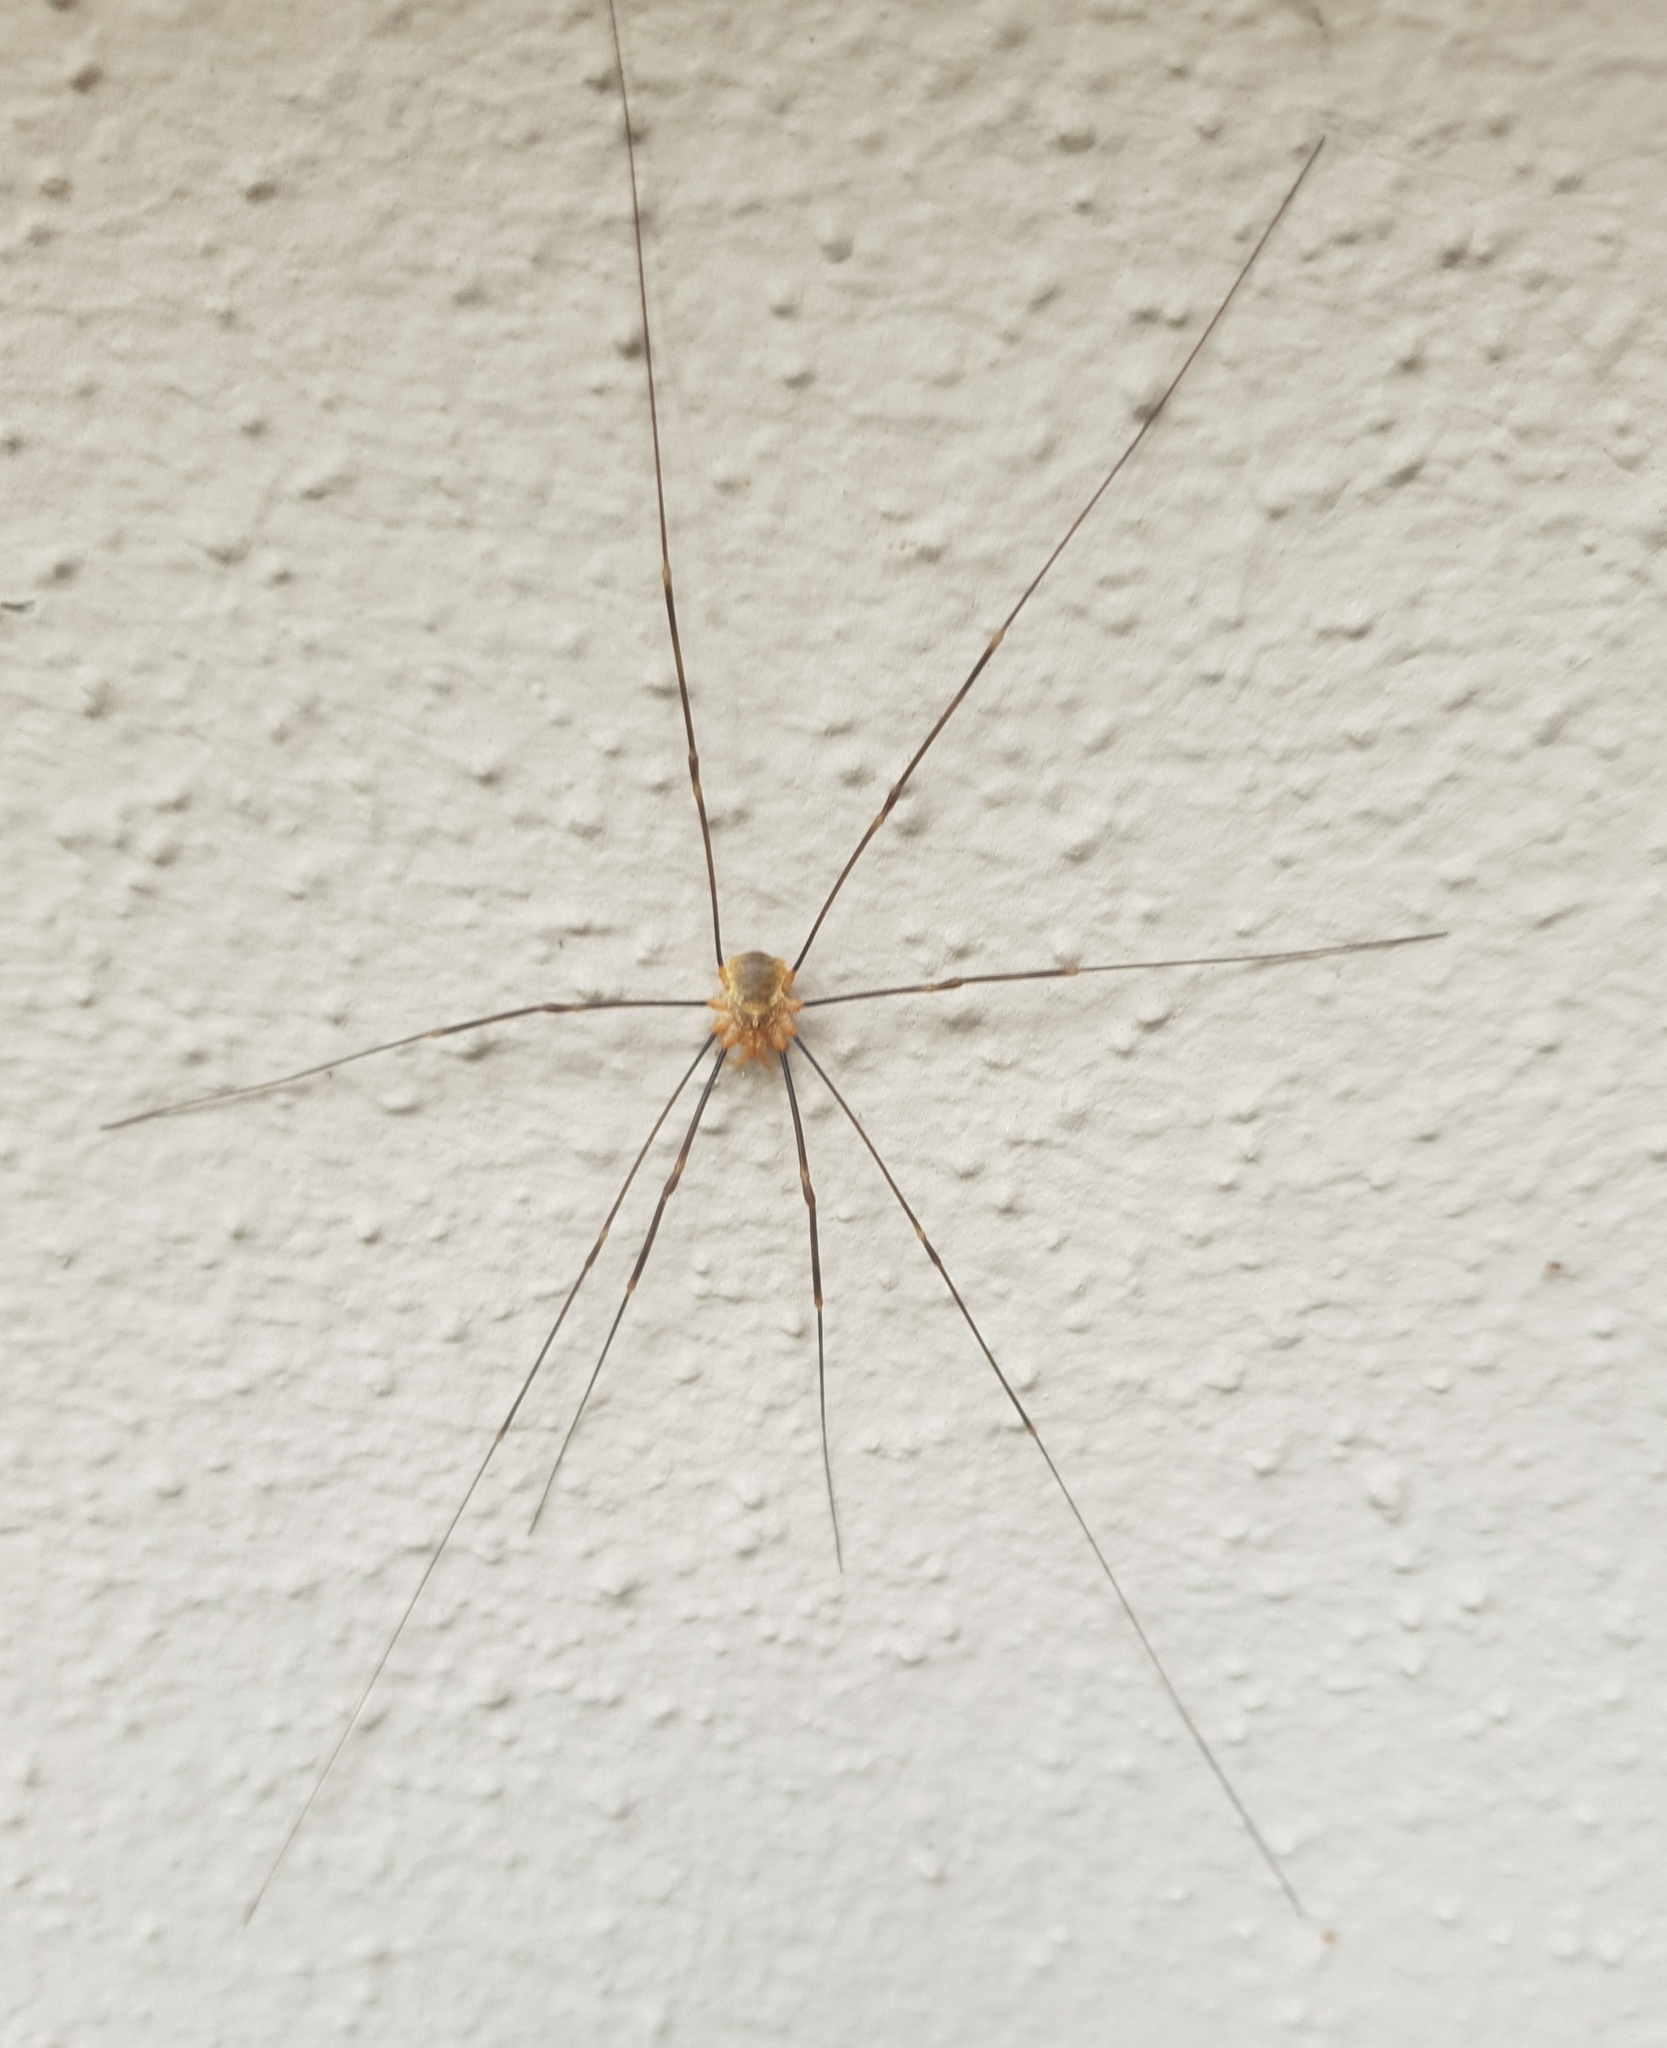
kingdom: Animalia
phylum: Arthropoda
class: Arachnida
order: Opiliones
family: Phalangiidae
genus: Opilio
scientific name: Opilio canestrinii
